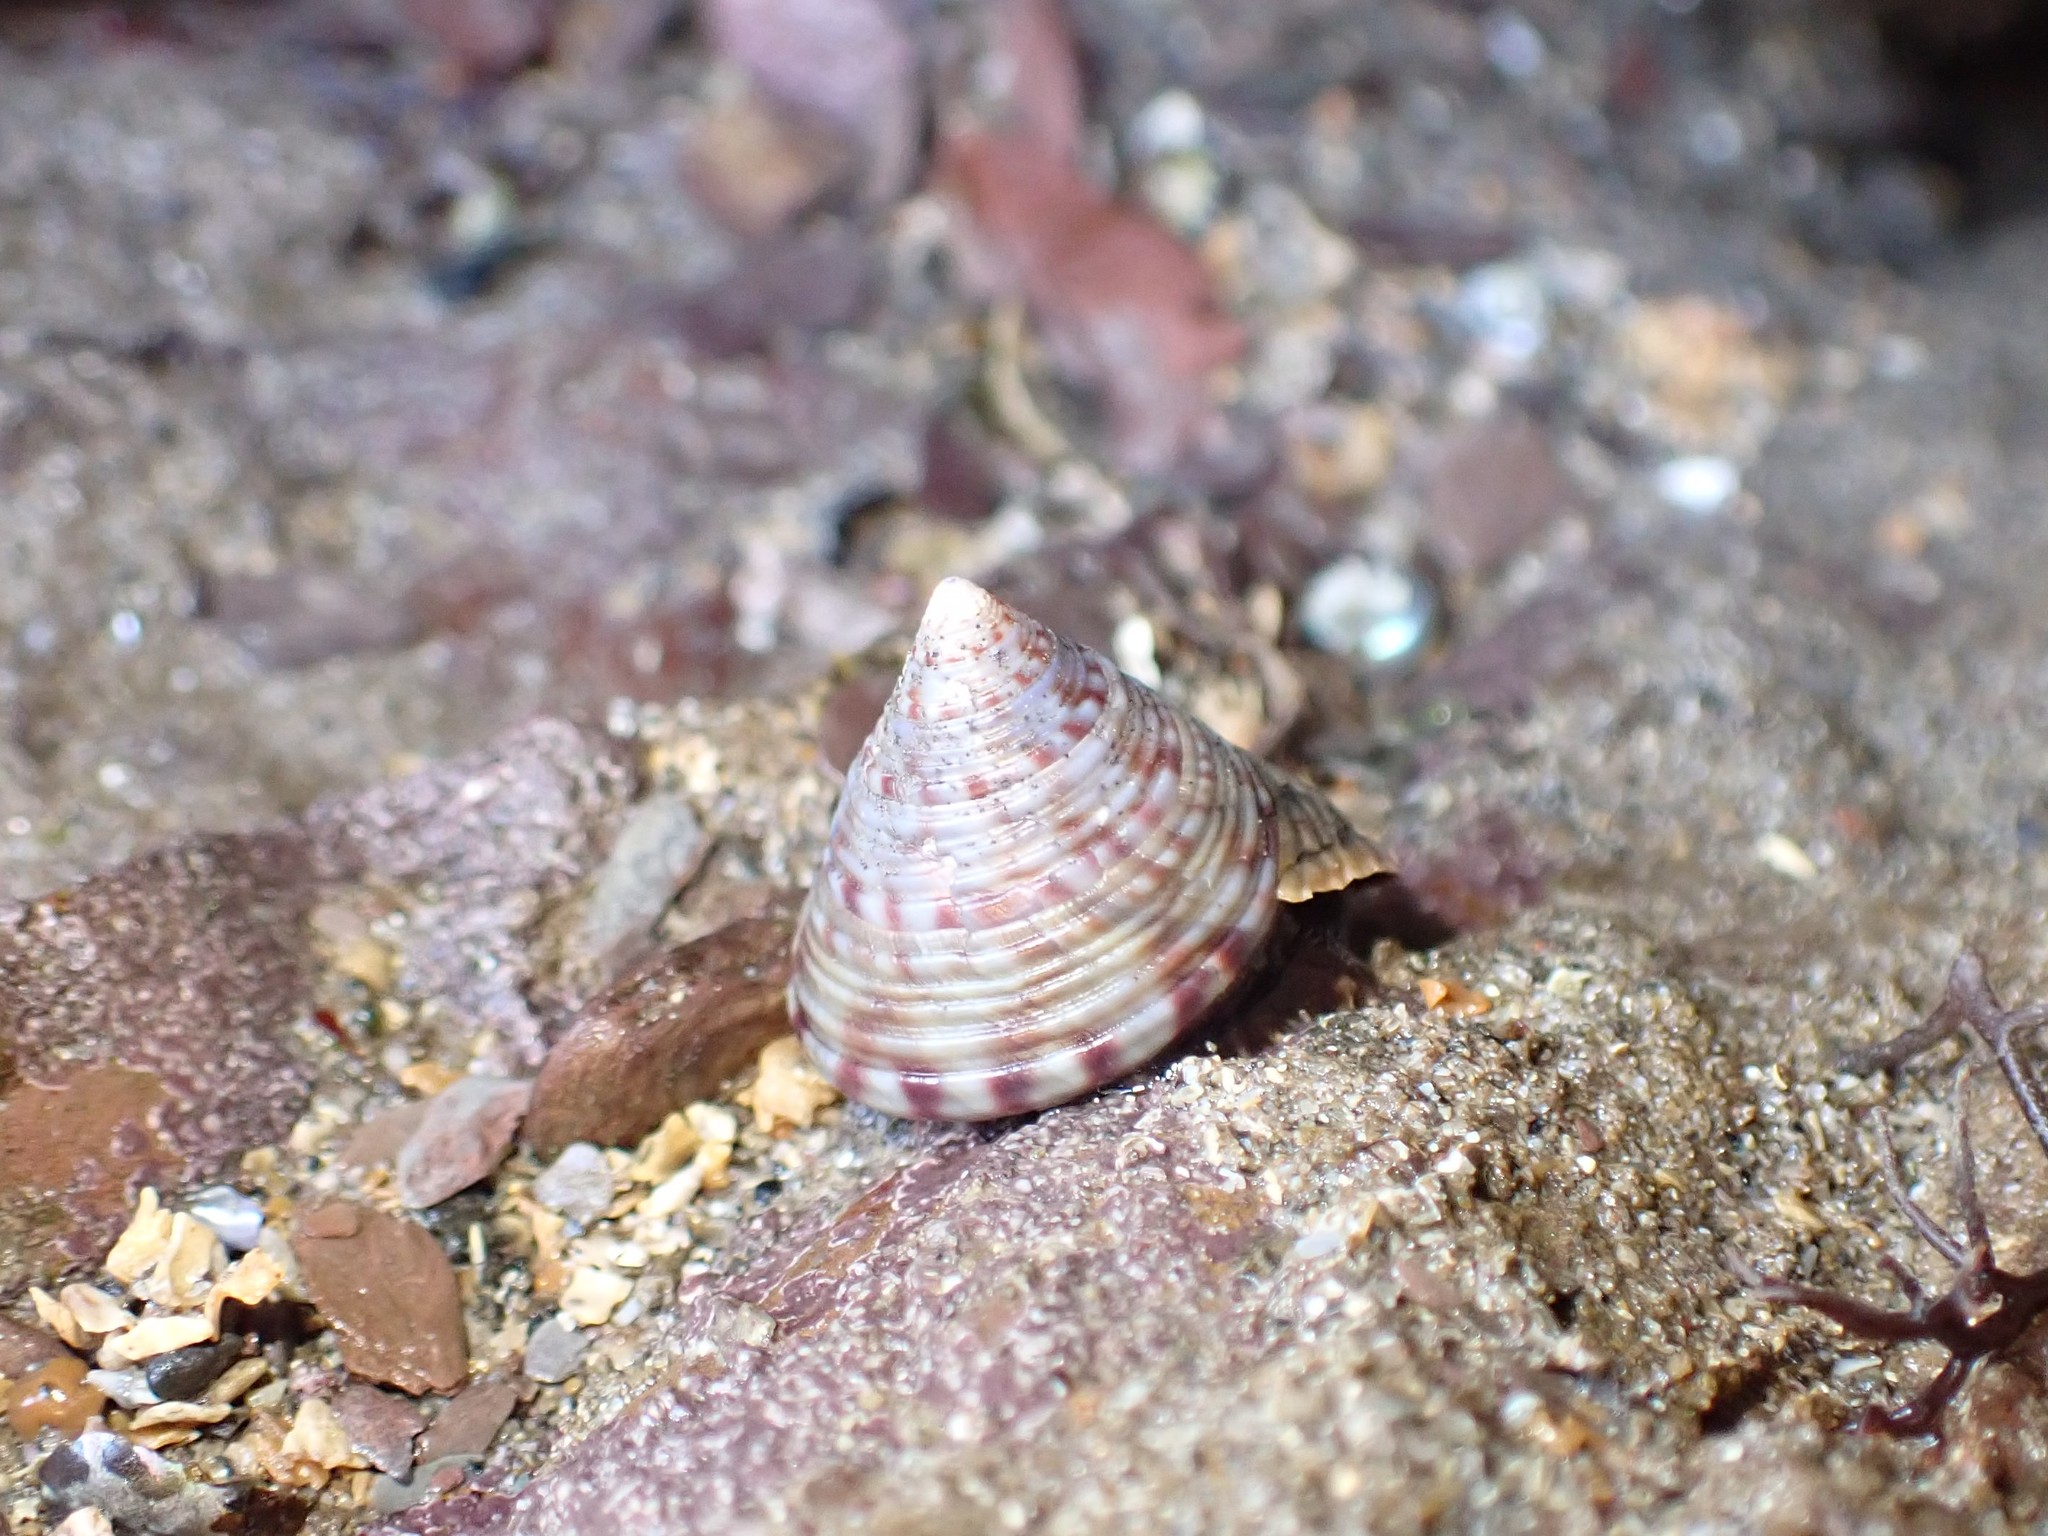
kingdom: Animalia
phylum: Mollusca
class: Gastropoda
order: Trochida
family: Calliostomatidae
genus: Calliostoma
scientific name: Calliostoma zizyphinum
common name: Painted top shell
